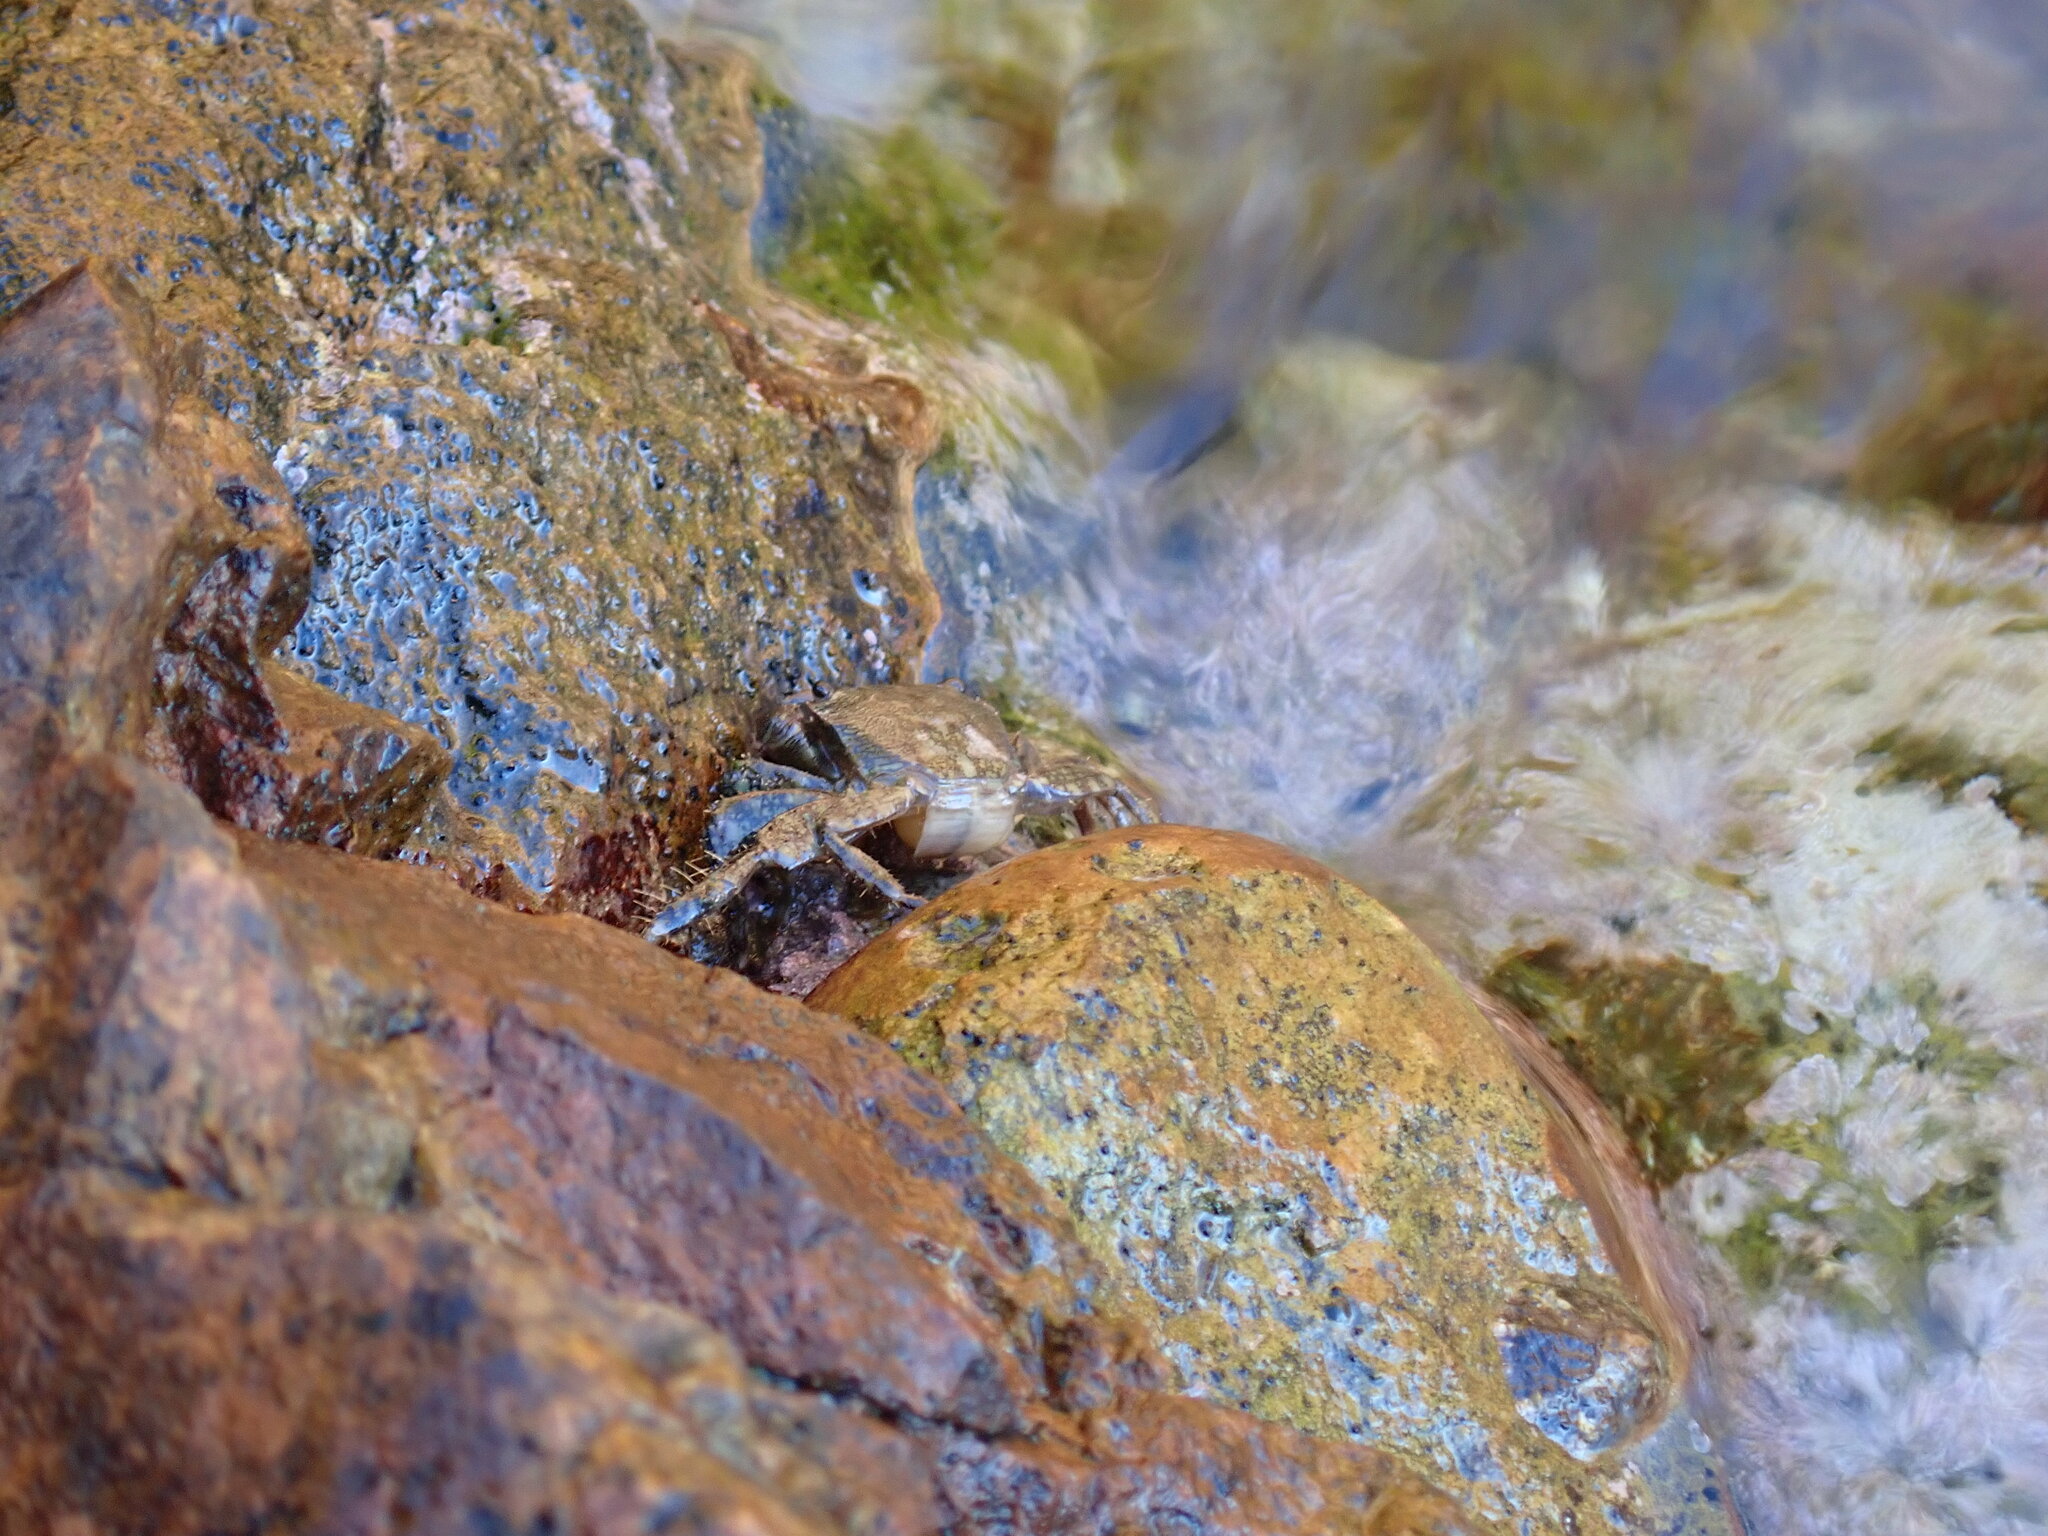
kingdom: Animalia
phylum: Arthropoda
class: Malacostraca
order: Decapoda
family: Grapsidae
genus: Pachygrapsus
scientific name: Pachygrapsus marmoratus
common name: Marbled rock crab
